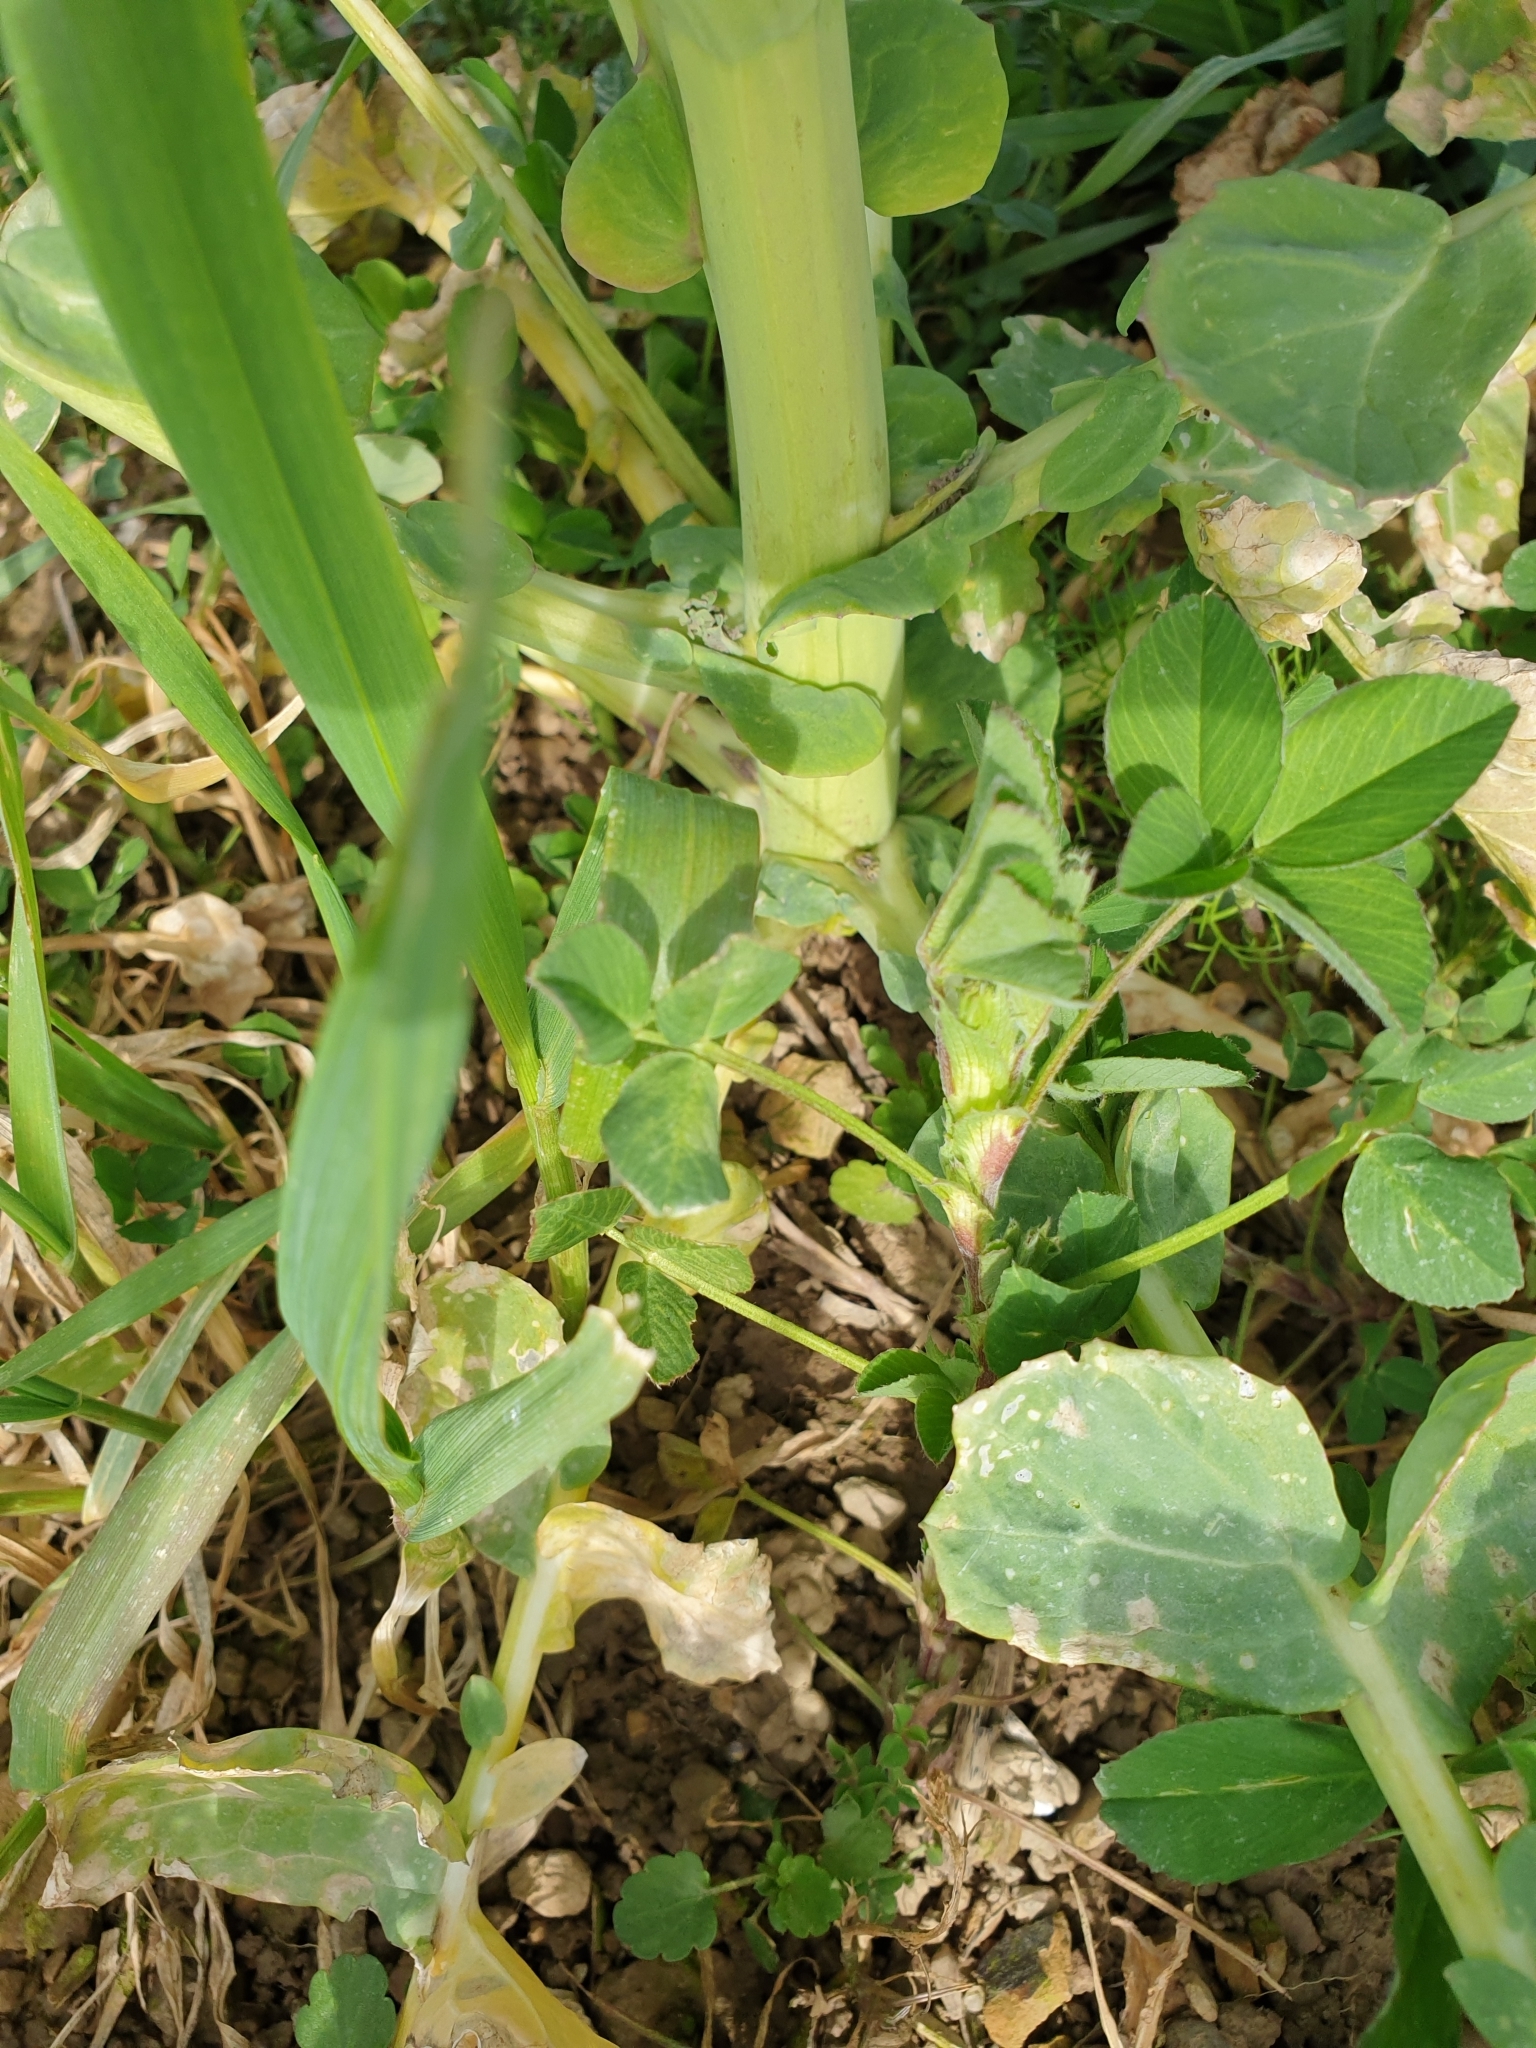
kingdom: Plantae
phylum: Tracheophyta
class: Magnoliopsida
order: Ranunculales
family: Papaveraceae
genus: Chelidonium
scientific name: Chelidonium majus
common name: Greater celandine
